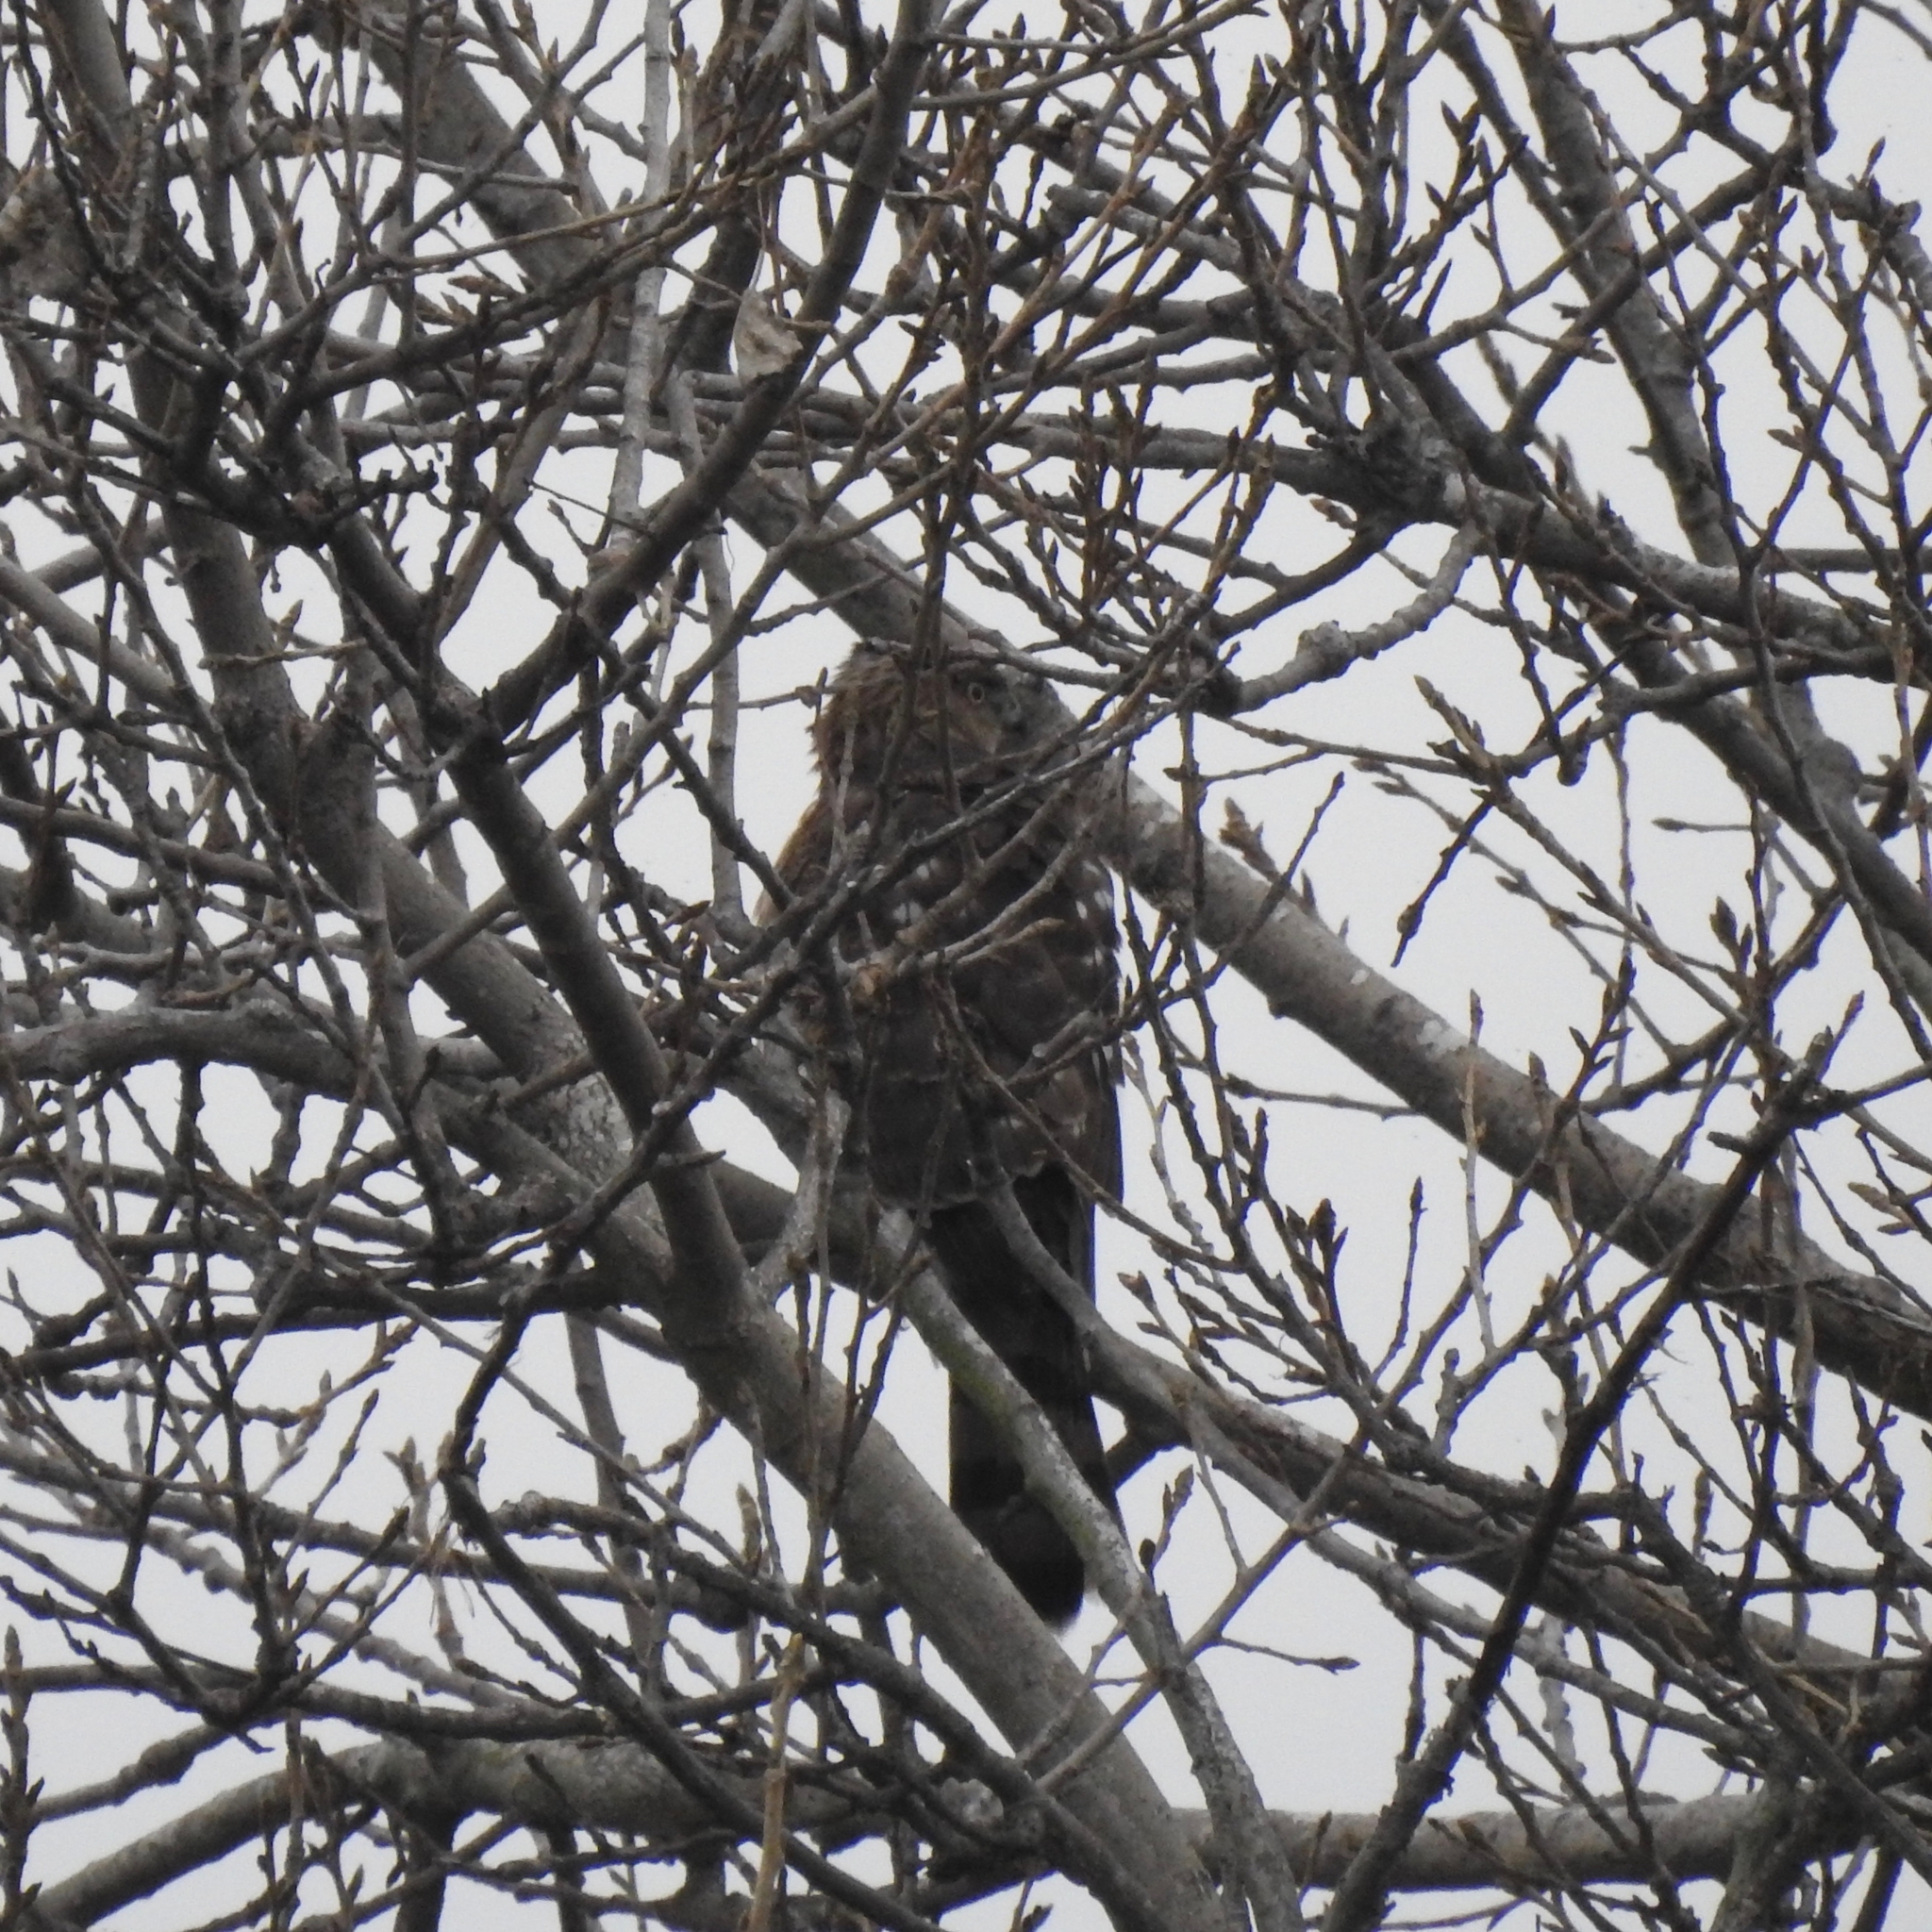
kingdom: Animalia
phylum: Chordata
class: Aves
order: Accipitriformes
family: Accipitridae
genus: Accipiter
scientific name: Accipiter cooperii
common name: Cooper's hawk
